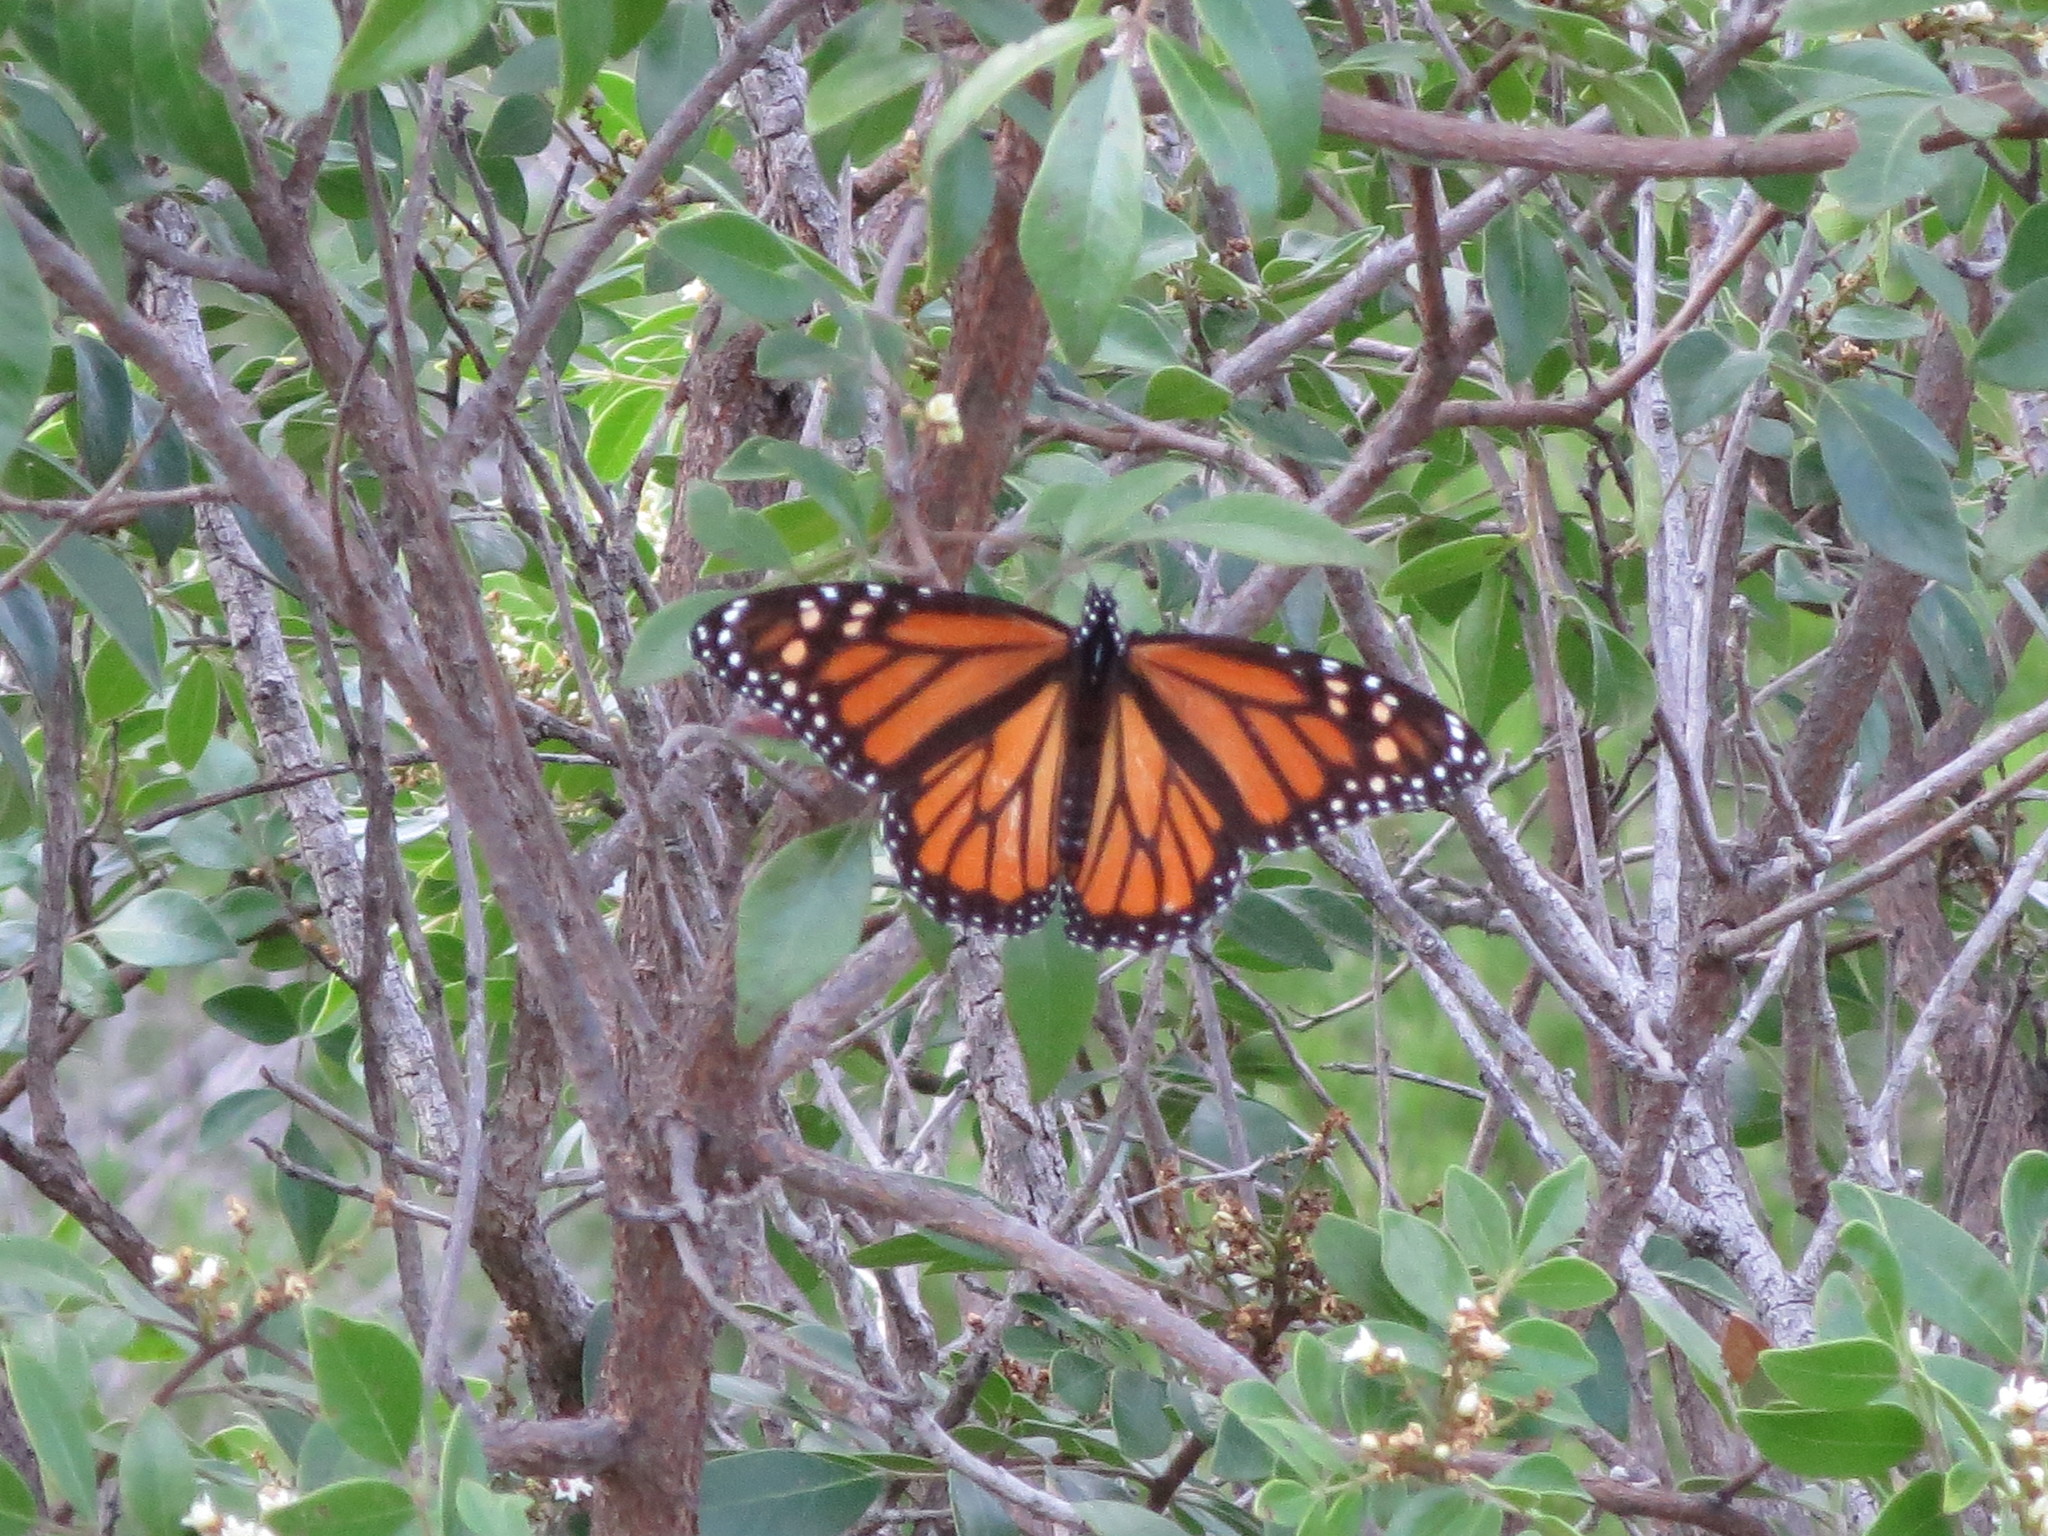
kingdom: Animalia
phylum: Arthropoda
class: Insecta
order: Lepidoptera
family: Nymphalidae
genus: Danaus
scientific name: Danaus plexippus
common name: Monarch
